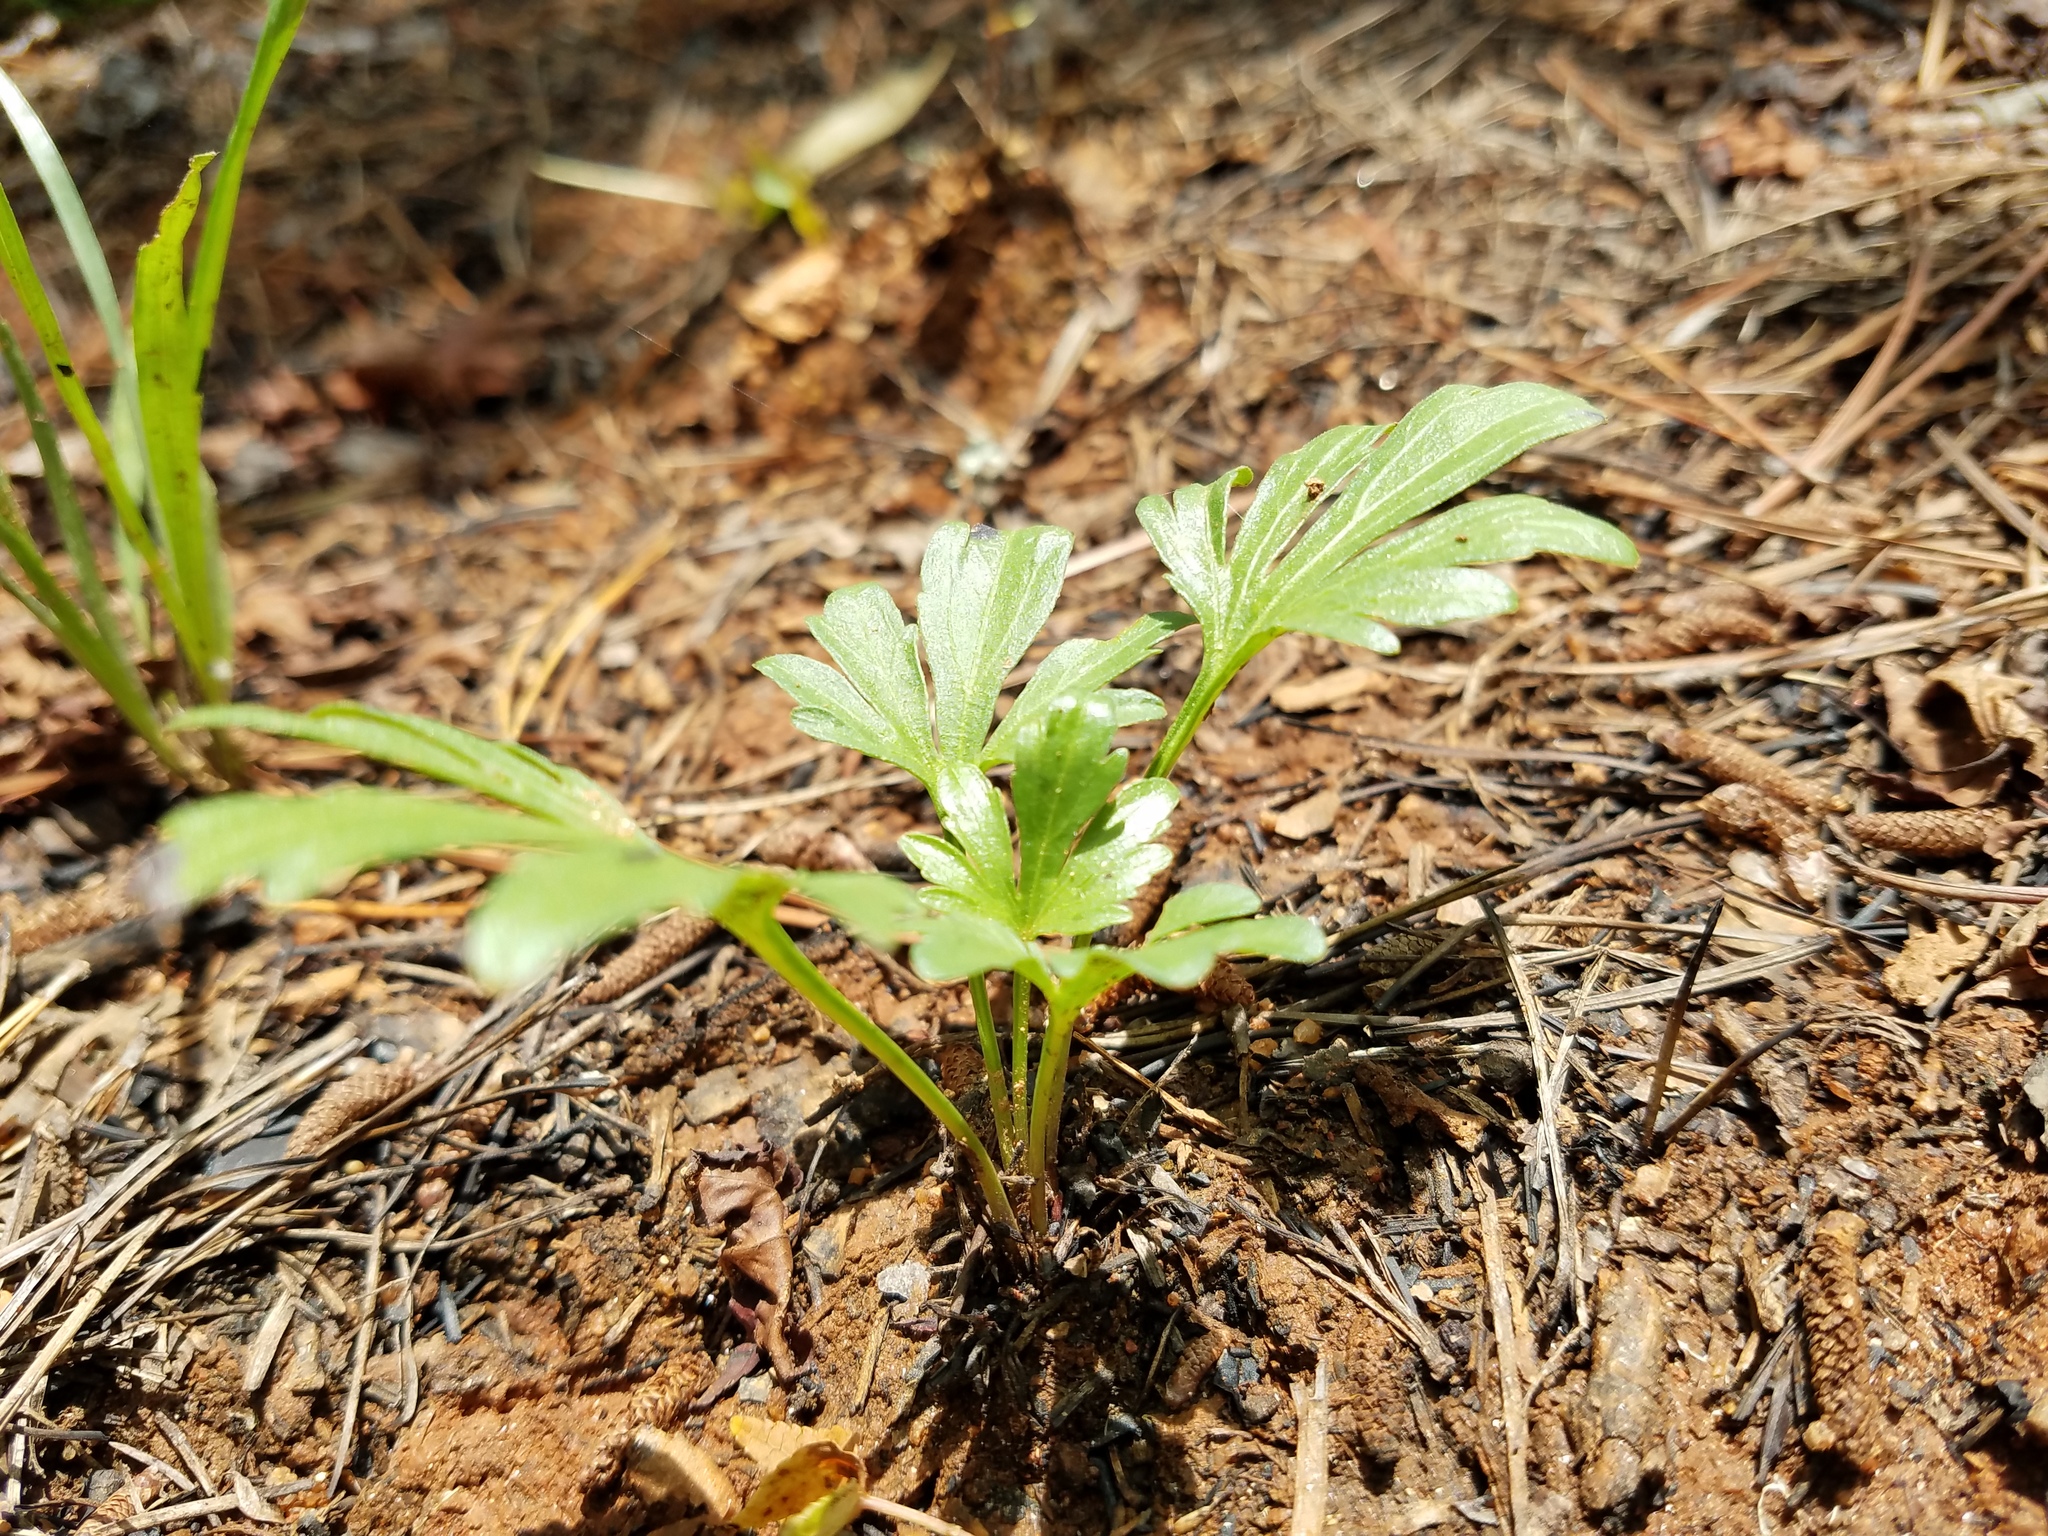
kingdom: Plantae
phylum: Tracheophyta
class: Magnoliopsida
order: Malpighiales
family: Violaceae
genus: Viola
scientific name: Viola pedata
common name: Pansy violet
